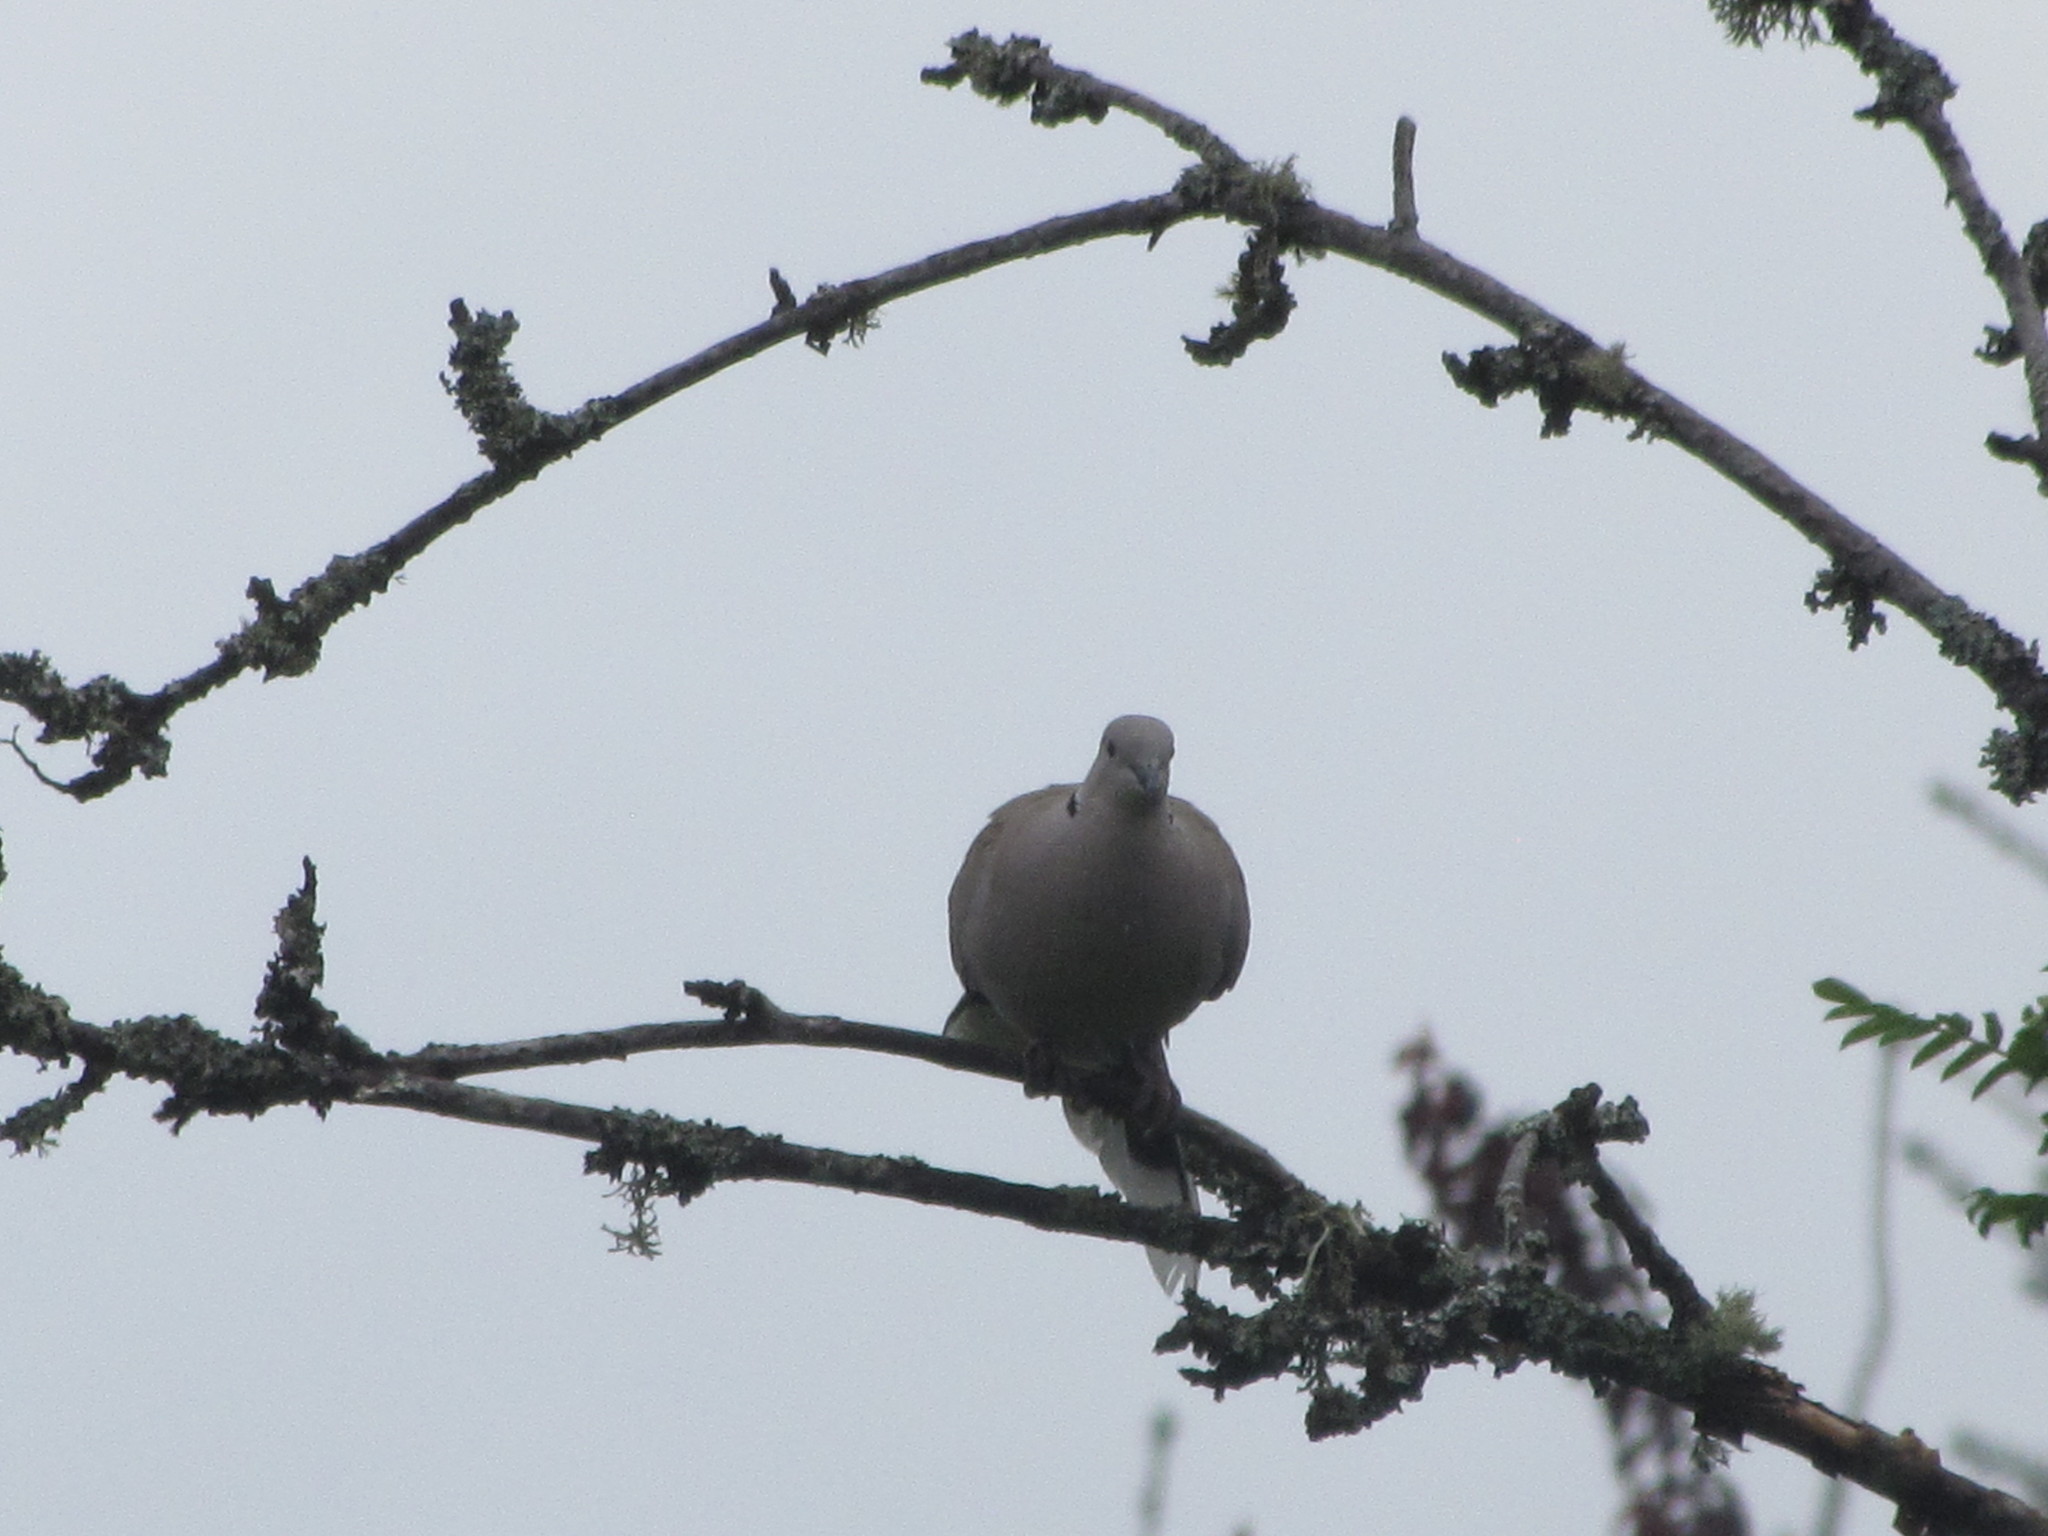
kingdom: Animalia
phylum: Chordata
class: Aves
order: Columbiformes
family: Columbidae
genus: Streptopelia
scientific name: Streptopelia decaocto
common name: Eurasian collared dove
